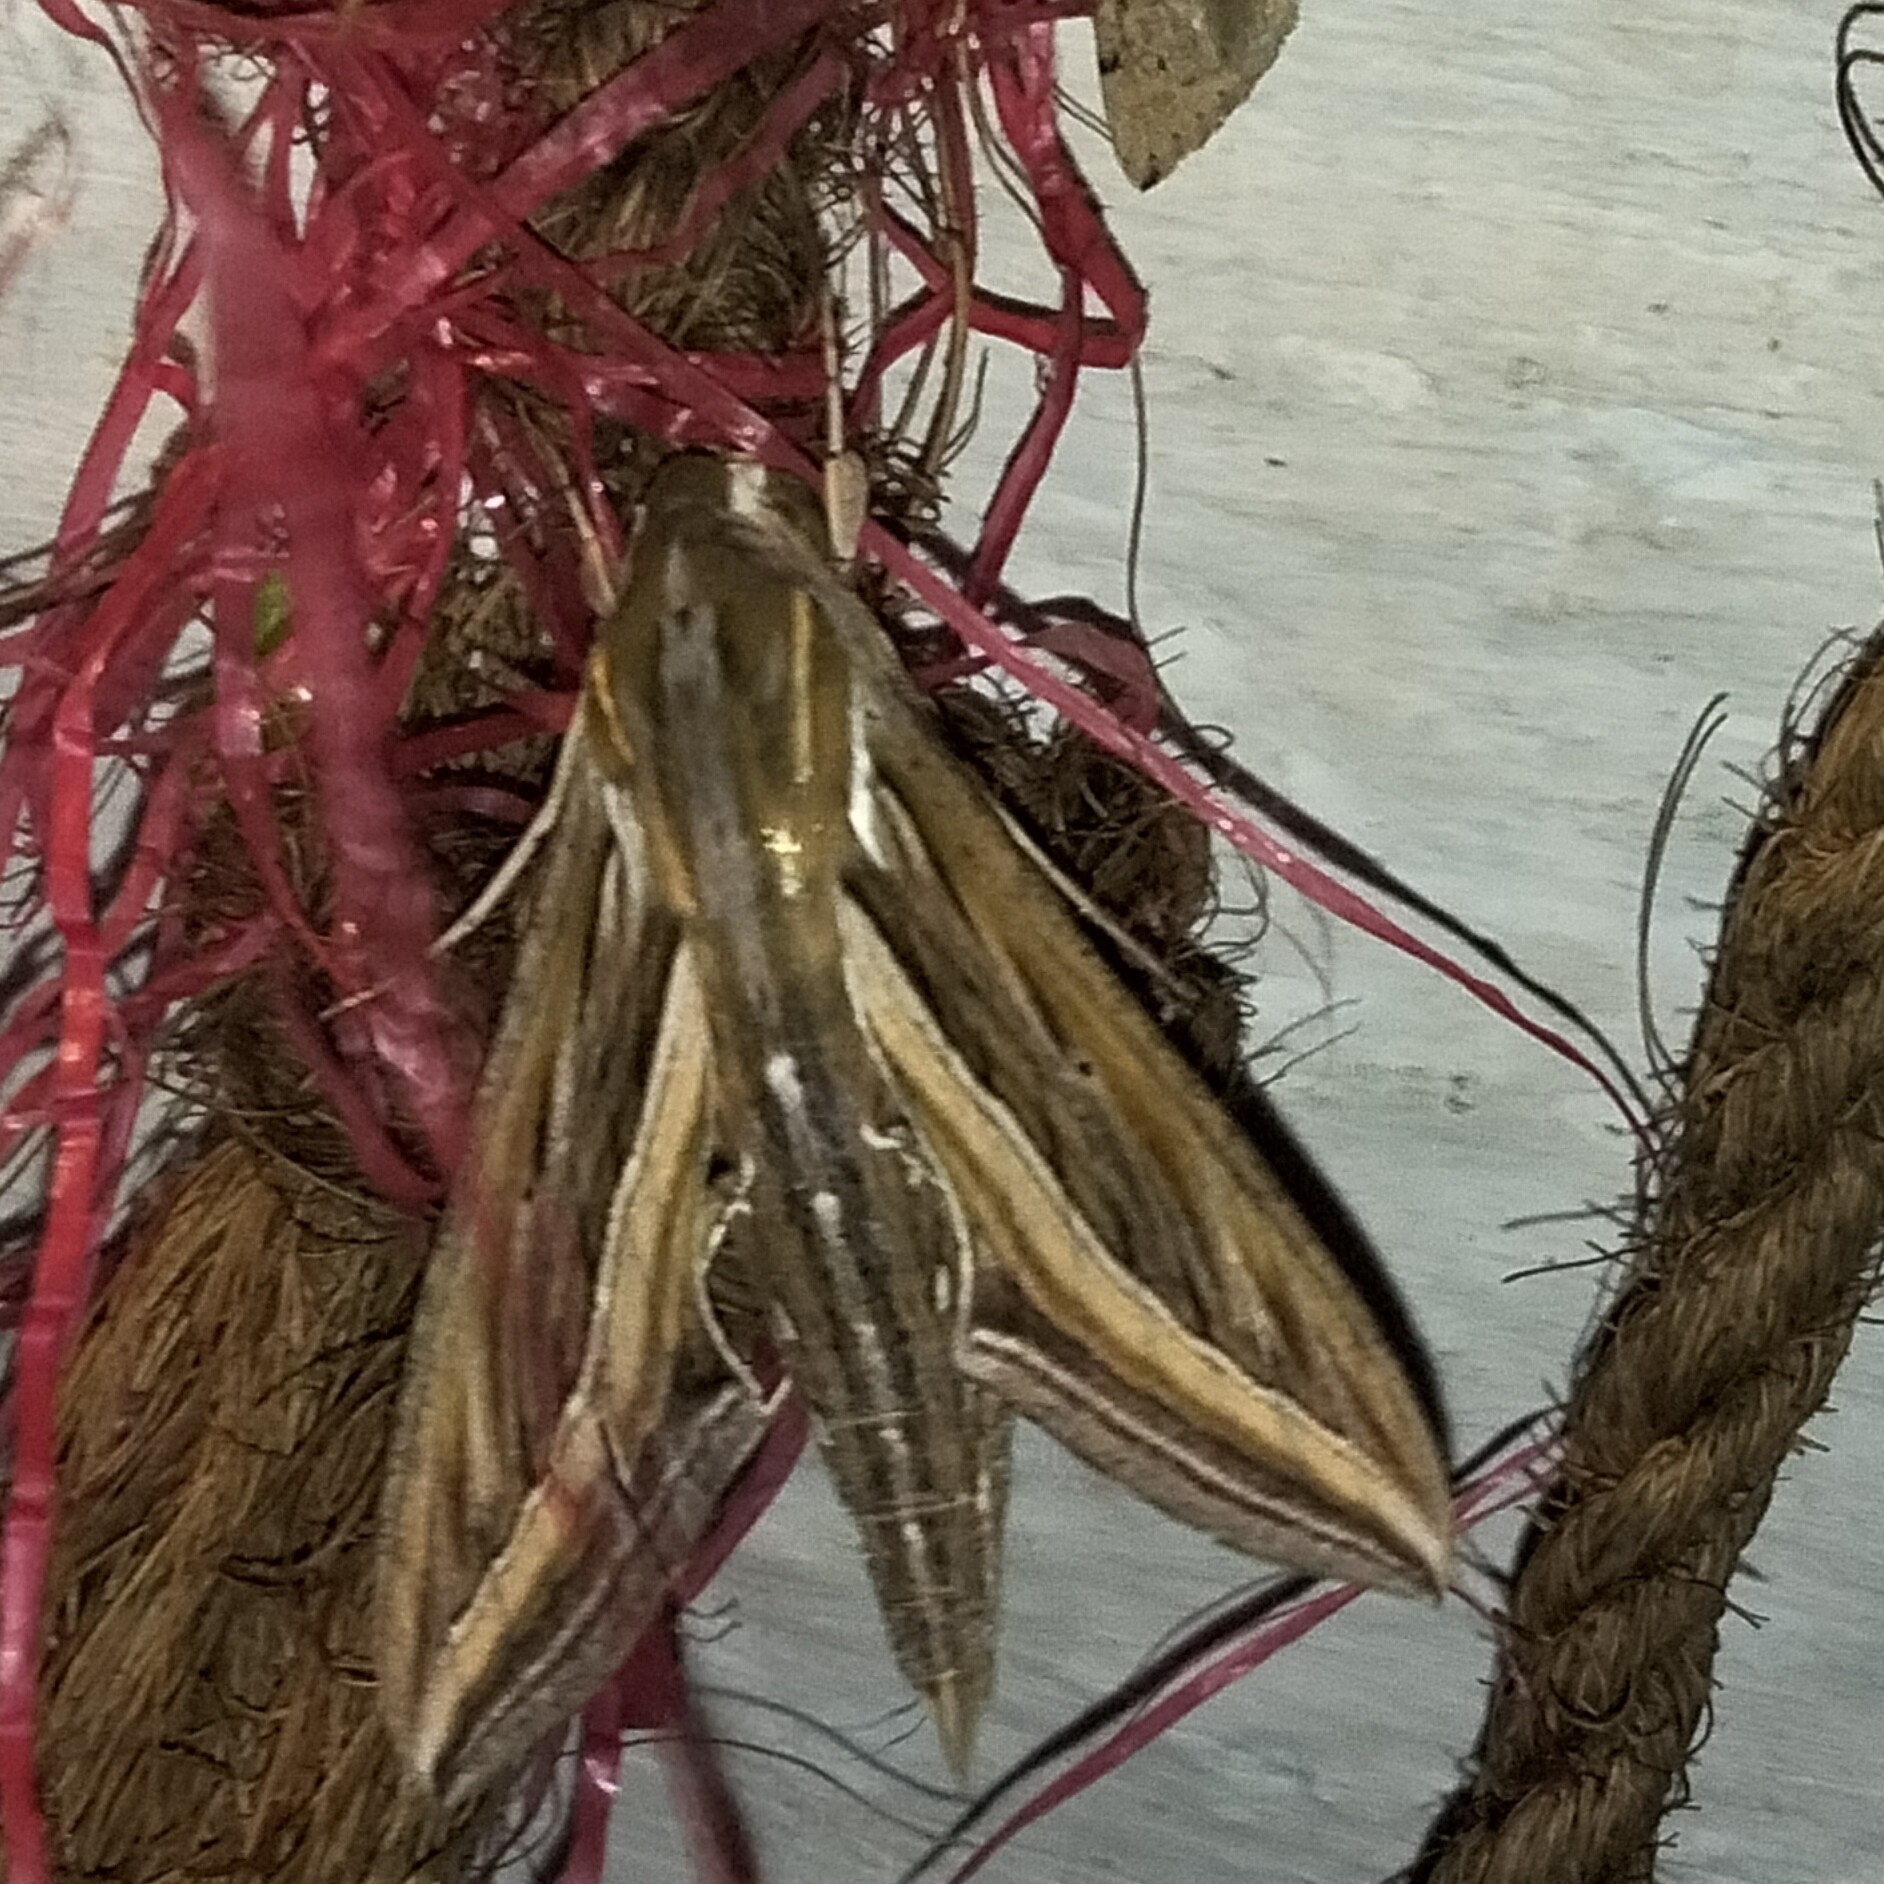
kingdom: Animalia
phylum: Arthropoda
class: Insecta
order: Lepidoptera
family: Sphingidae
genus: Hippotion
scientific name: Hippotion celerio
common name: Silver-striped hawk-moth
